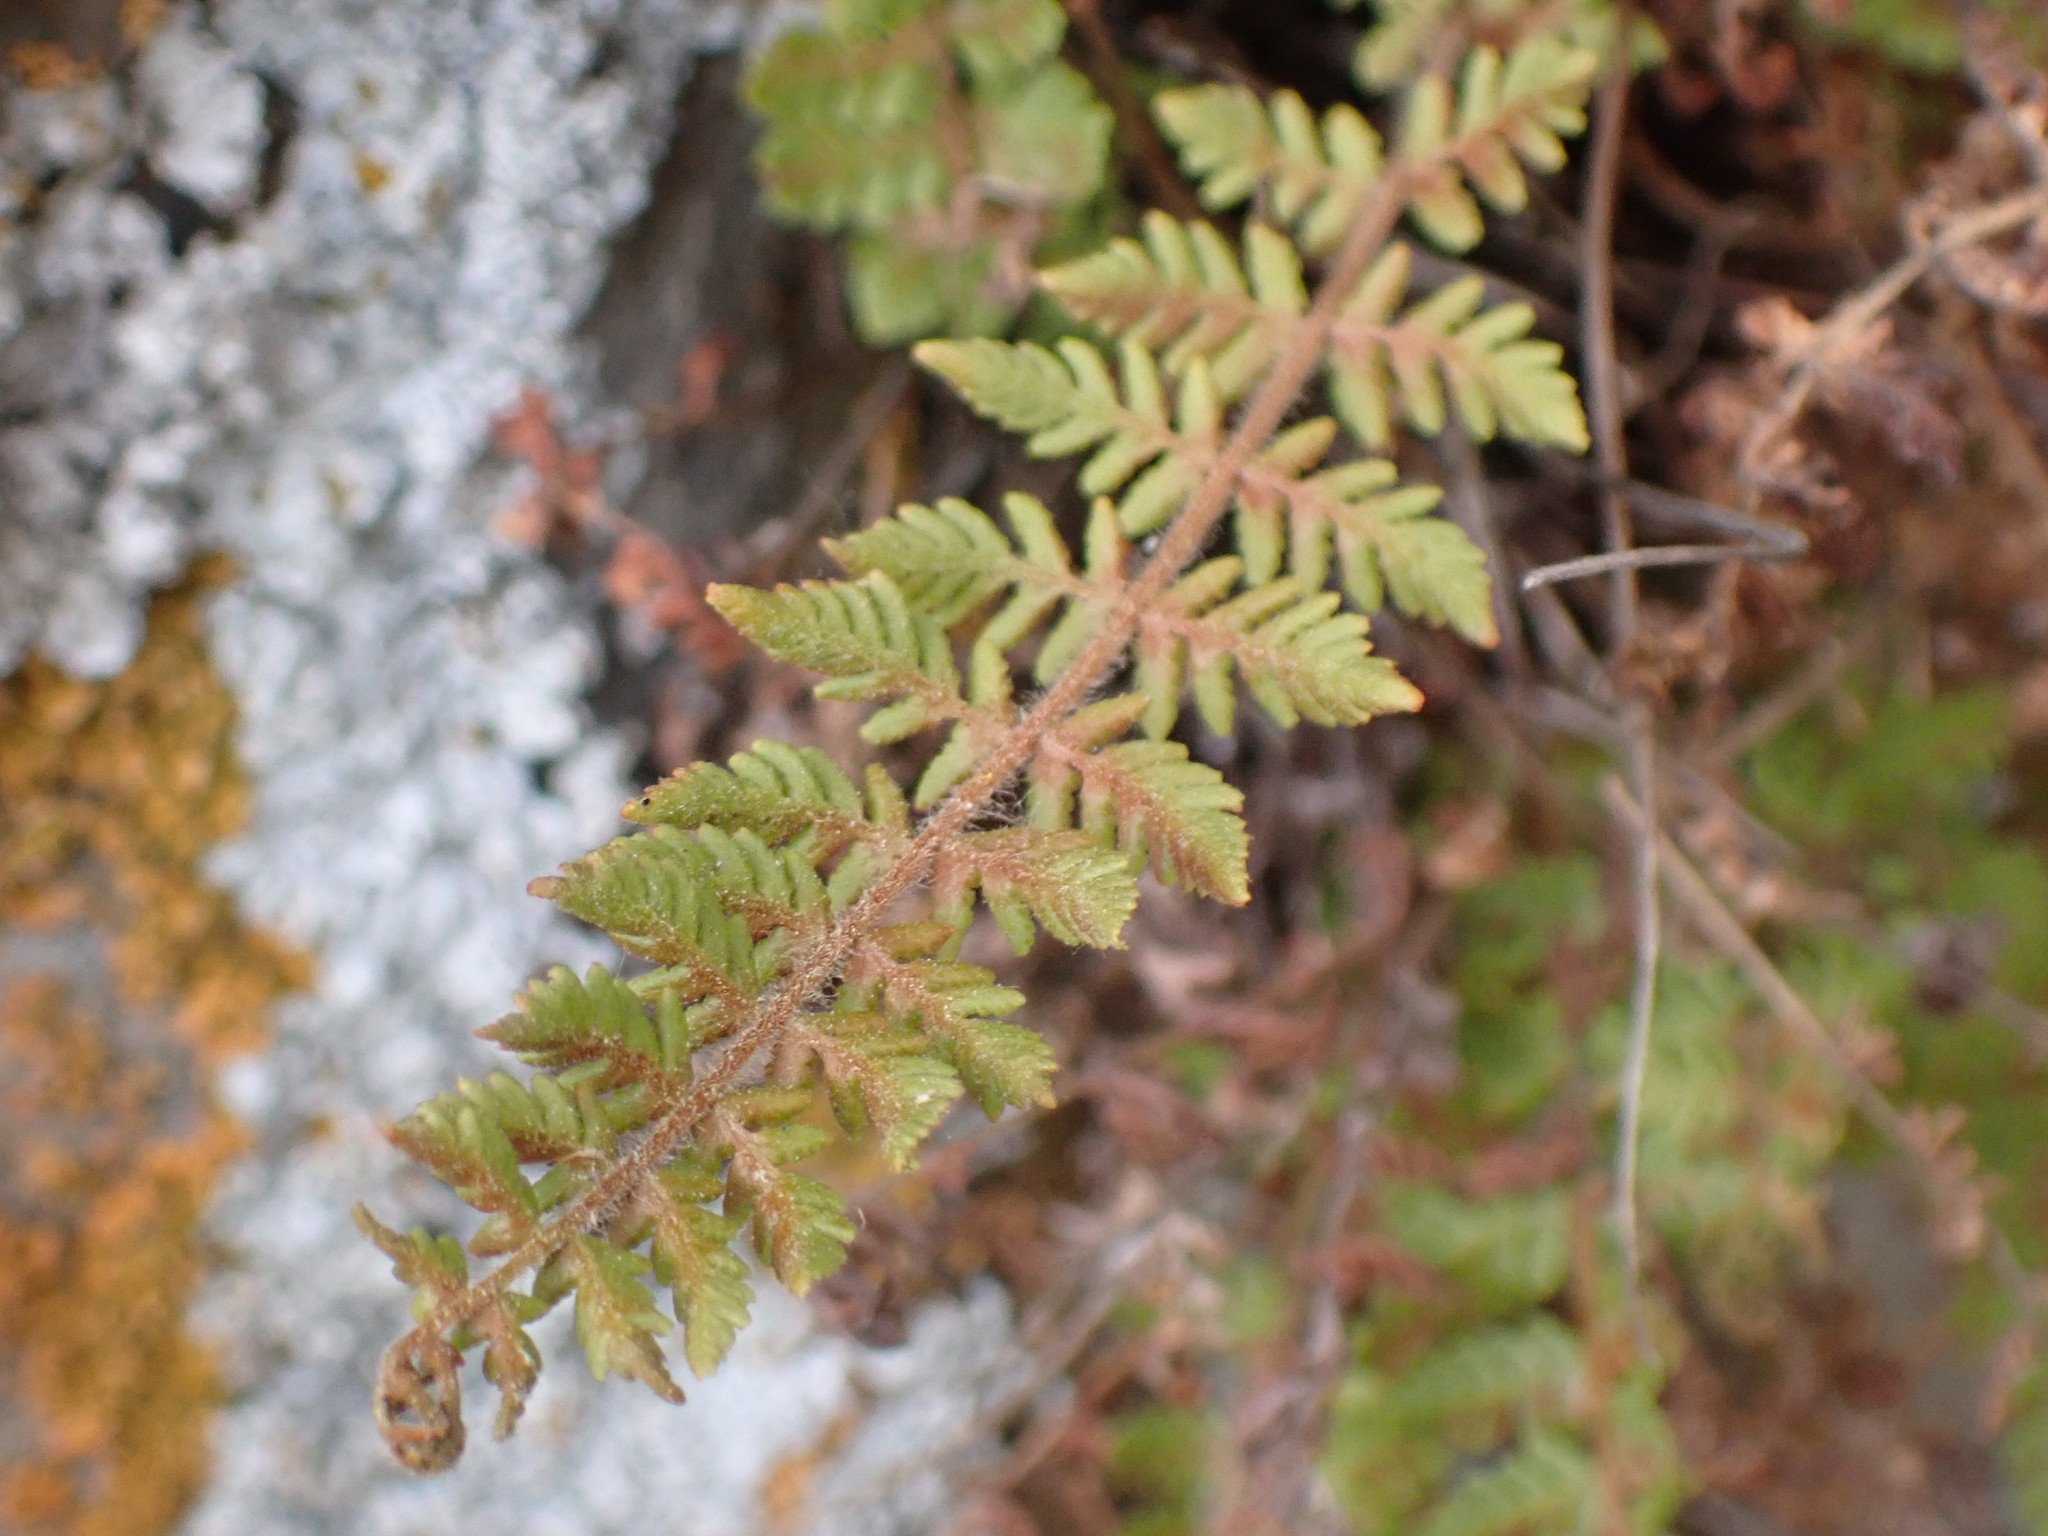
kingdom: Plantae
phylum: Tracheophyta
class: Polypodiopsida
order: Polypodiales
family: Woodsiaceae
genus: Physematium
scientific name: Physematium scopulinum
